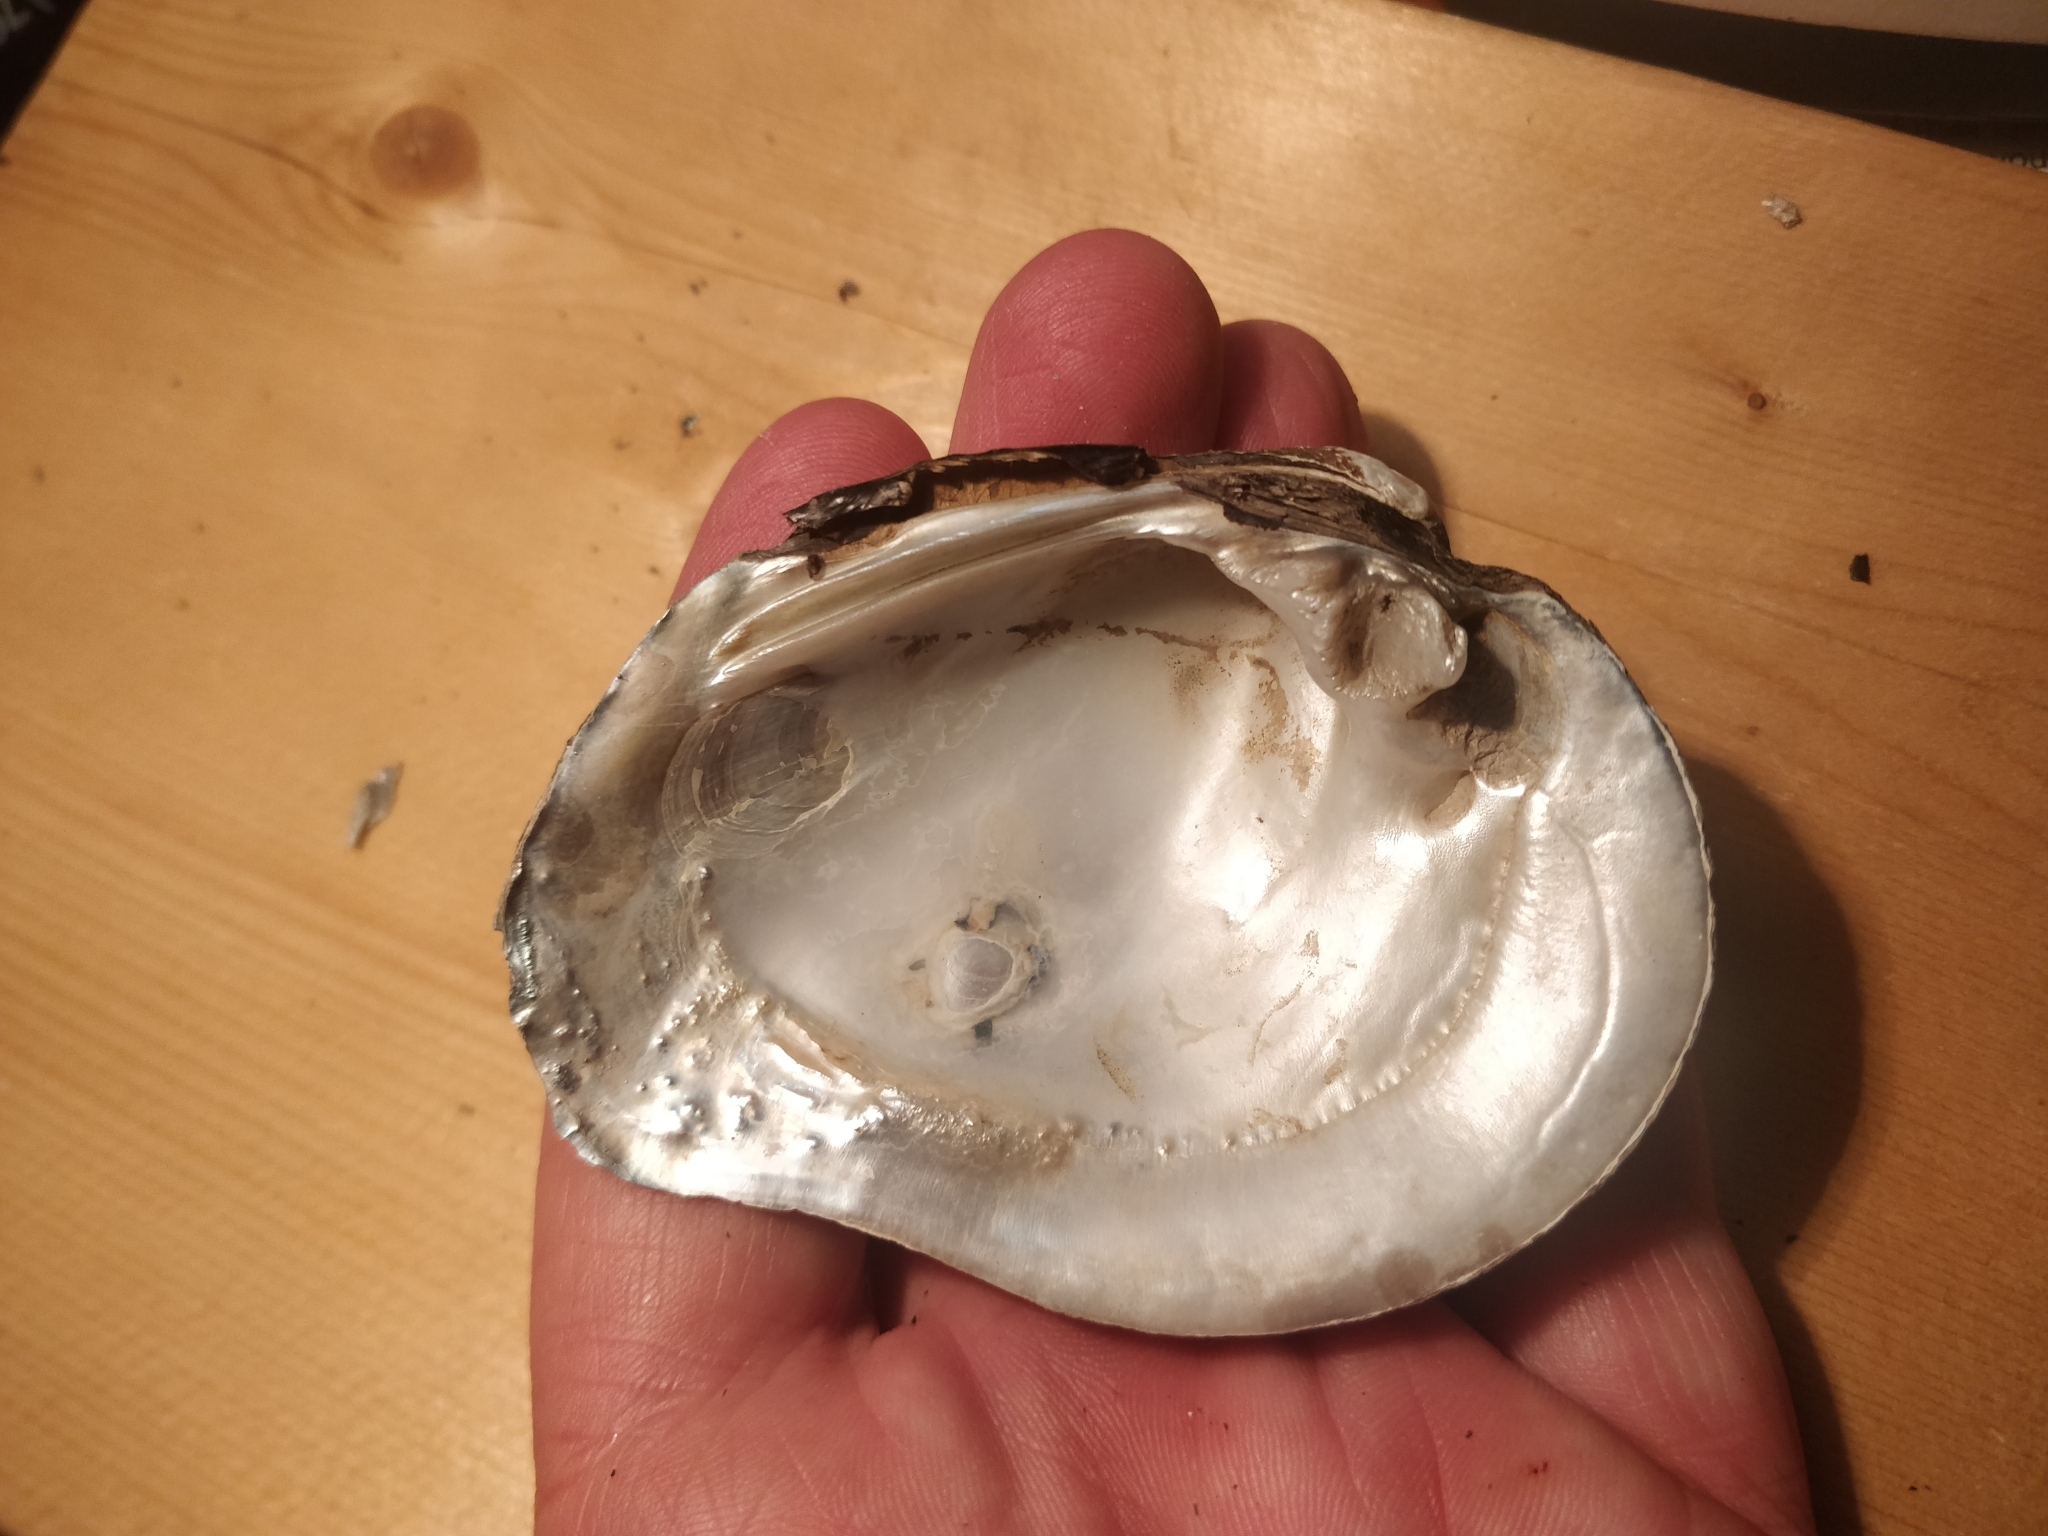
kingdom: Animalia
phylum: Mollusca
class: Bivalvia
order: Unionida
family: Unionidae
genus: Tritogonia
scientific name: Tritogonia nobilis
